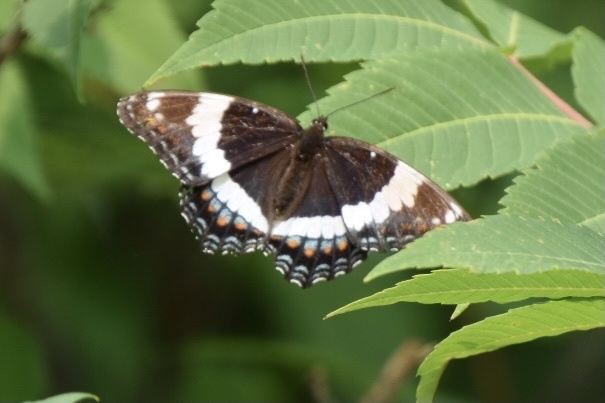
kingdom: Animalia
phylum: Arthropoda
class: Insecta
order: Lepidoptera
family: Nymphalidae
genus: Limenitis
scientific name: Limenitis arthemis
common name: Red-spotted admiral
